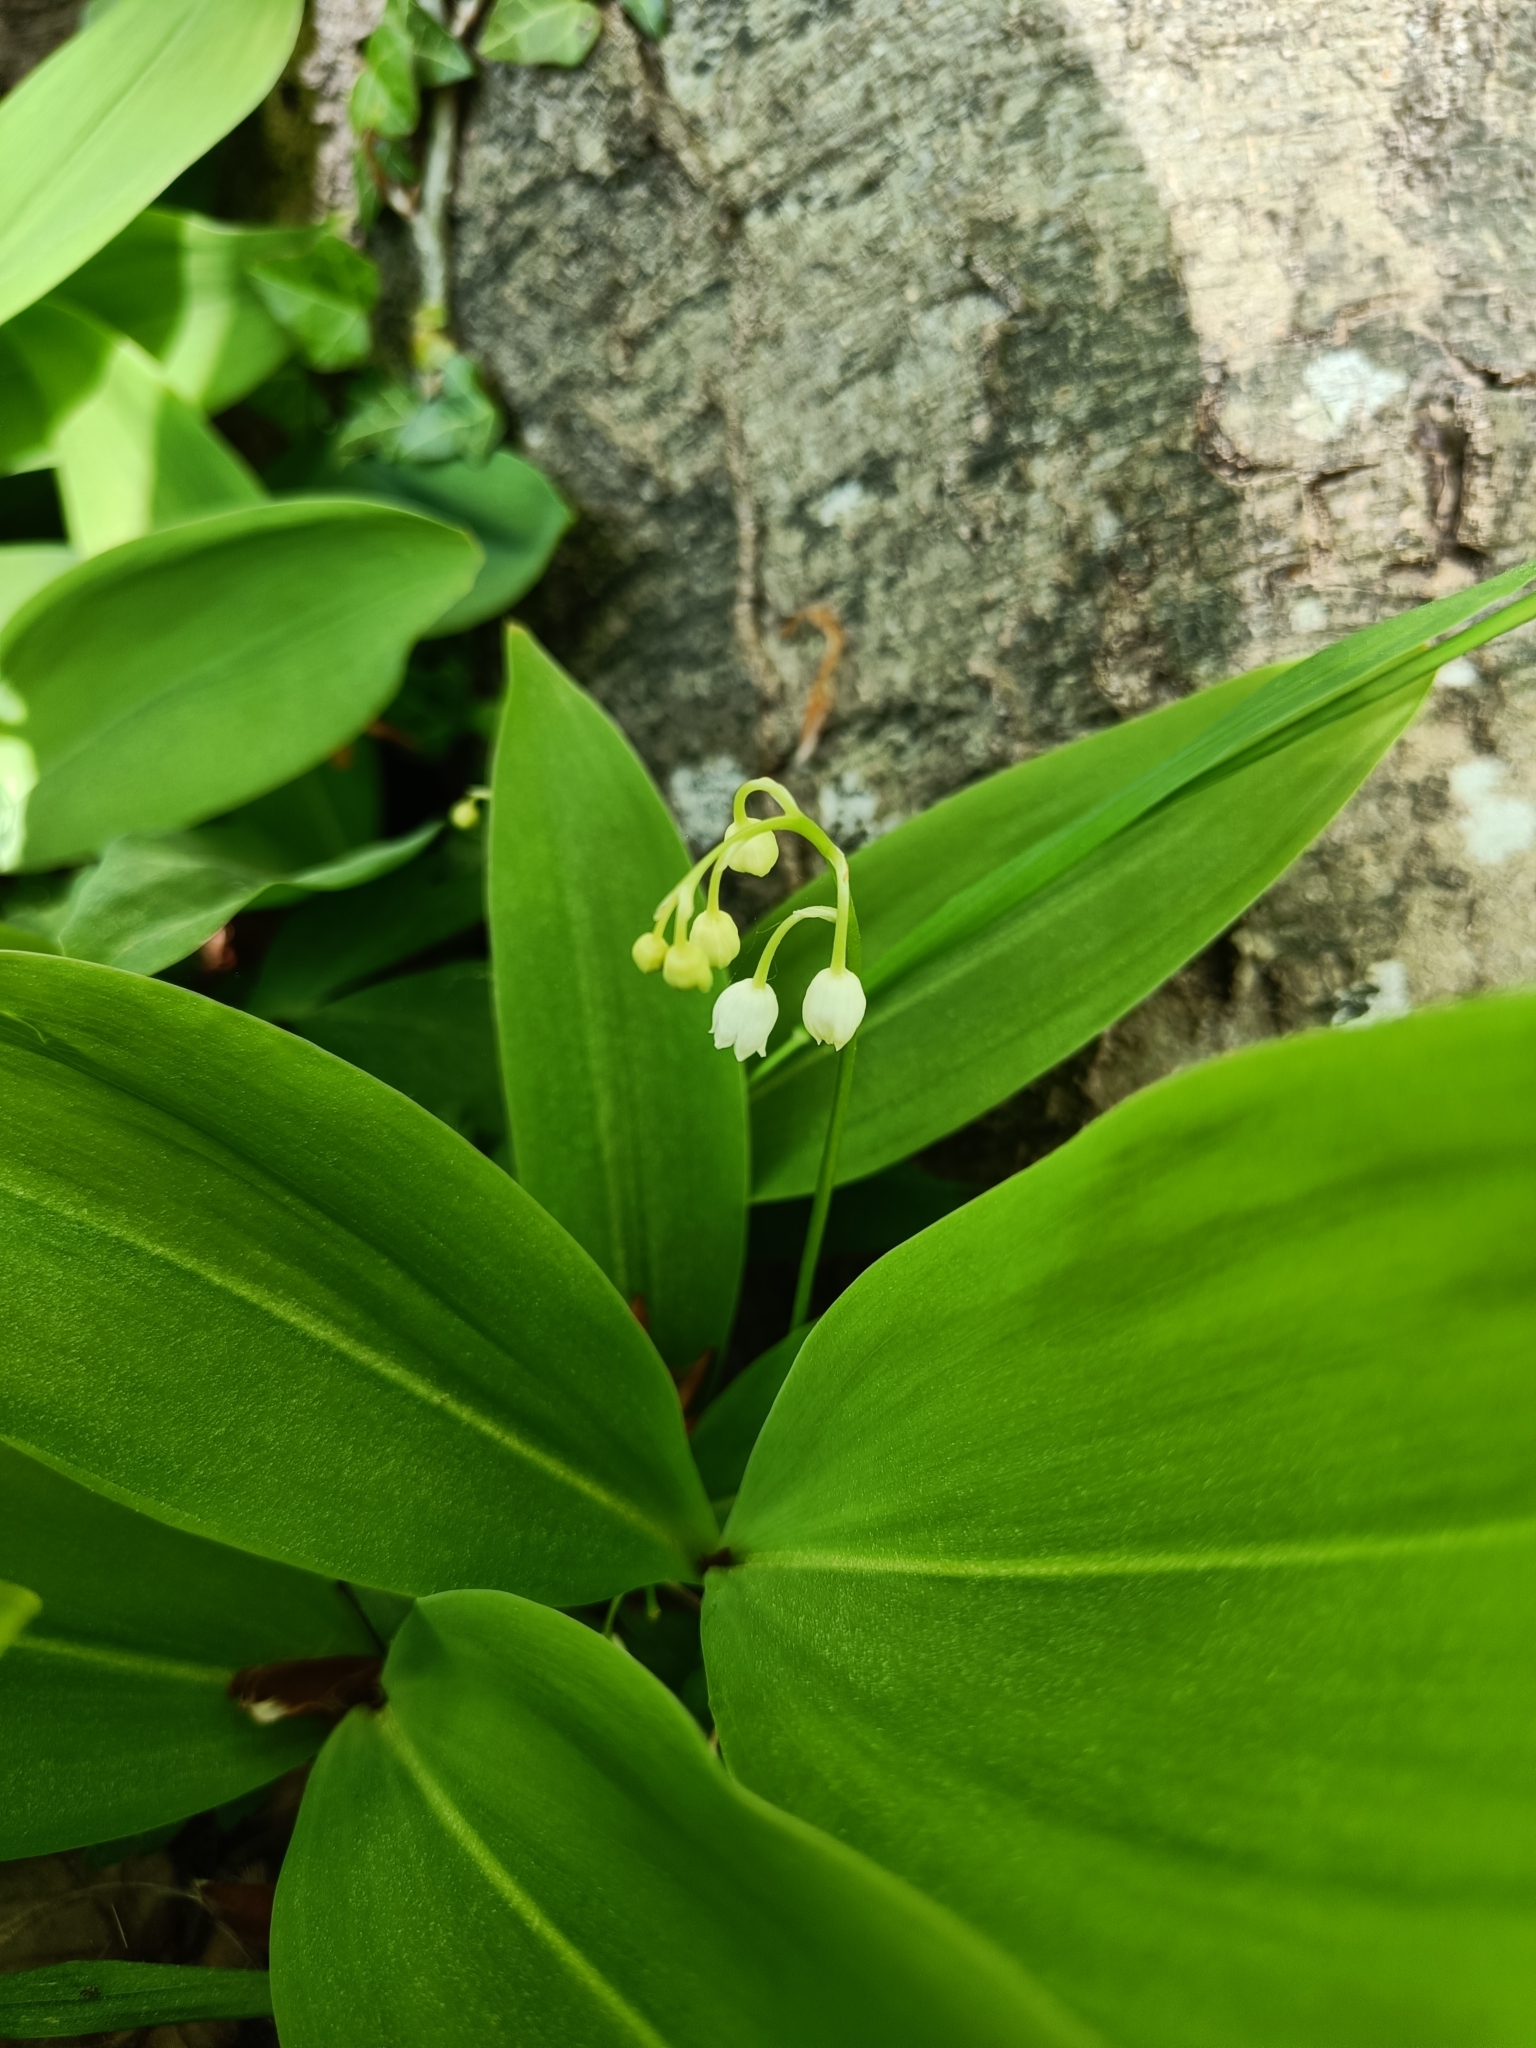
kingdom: Plantae
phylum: Tracheophyta
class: Liliopsida
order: Asparagales
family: Asparagaceae
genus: Convallaria
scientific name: Convallaria majalis
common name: Lily-of-the-valley
